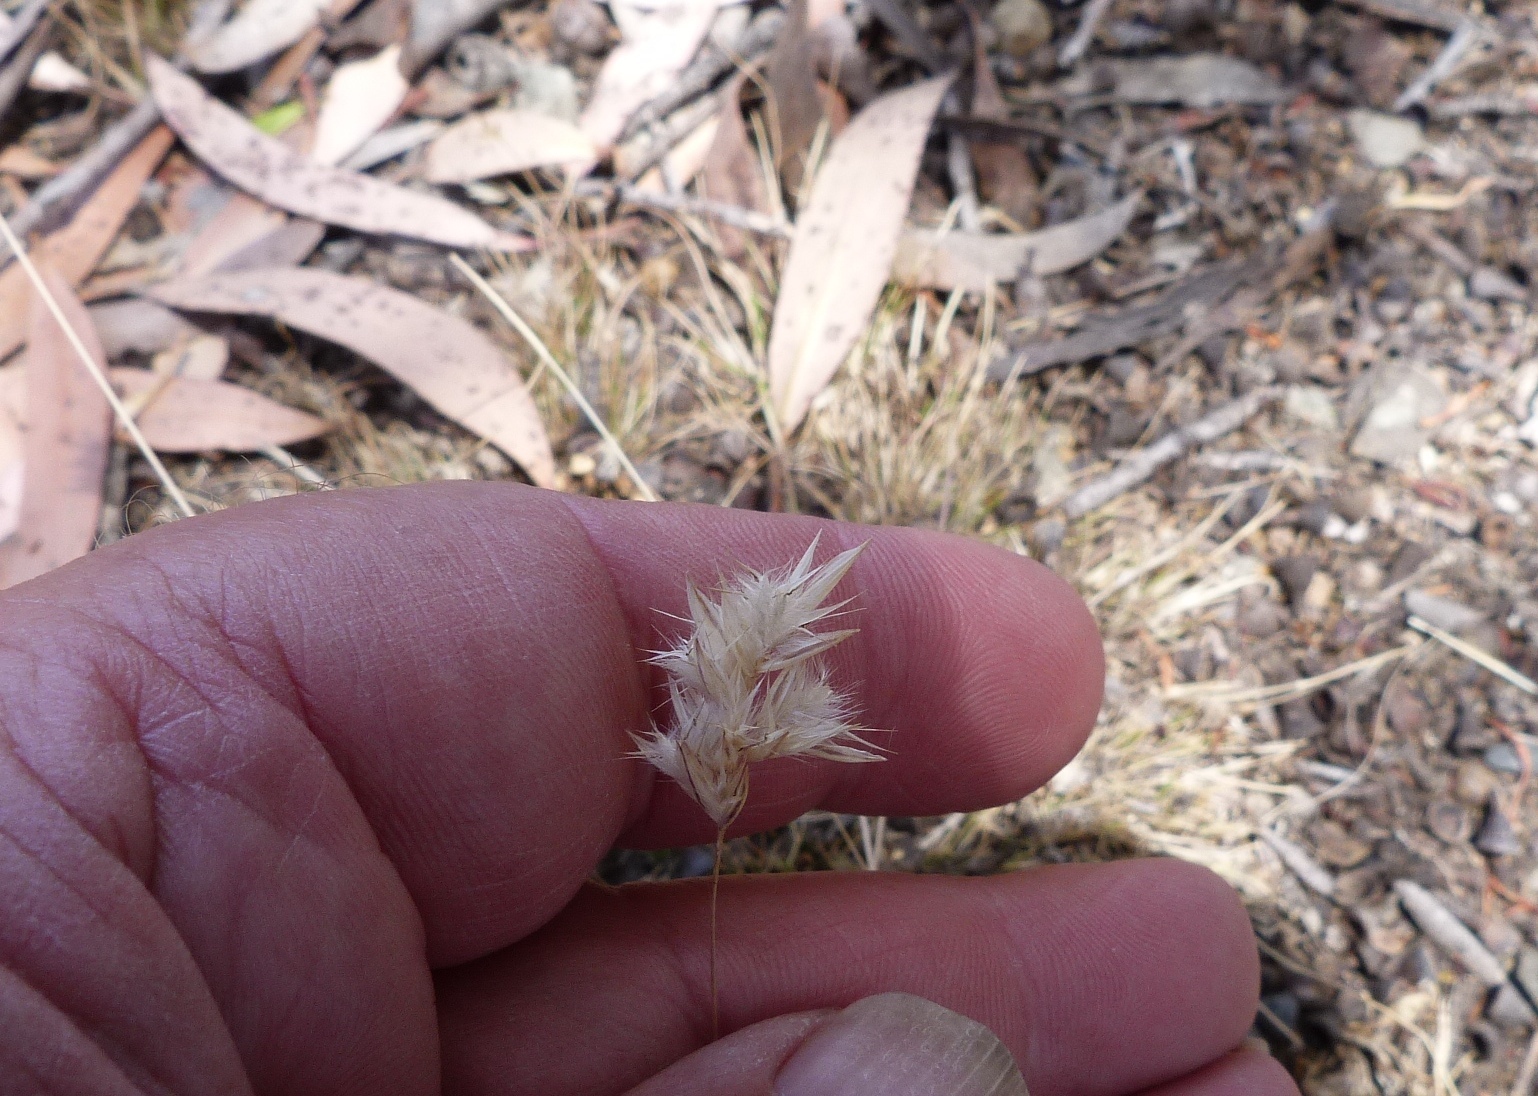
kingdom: Plantae
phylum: Tracheophyta
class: Liliopsida
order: Poales
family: Poaceae
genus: Rytidosperma
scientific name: Rytidosperma geniculatum
